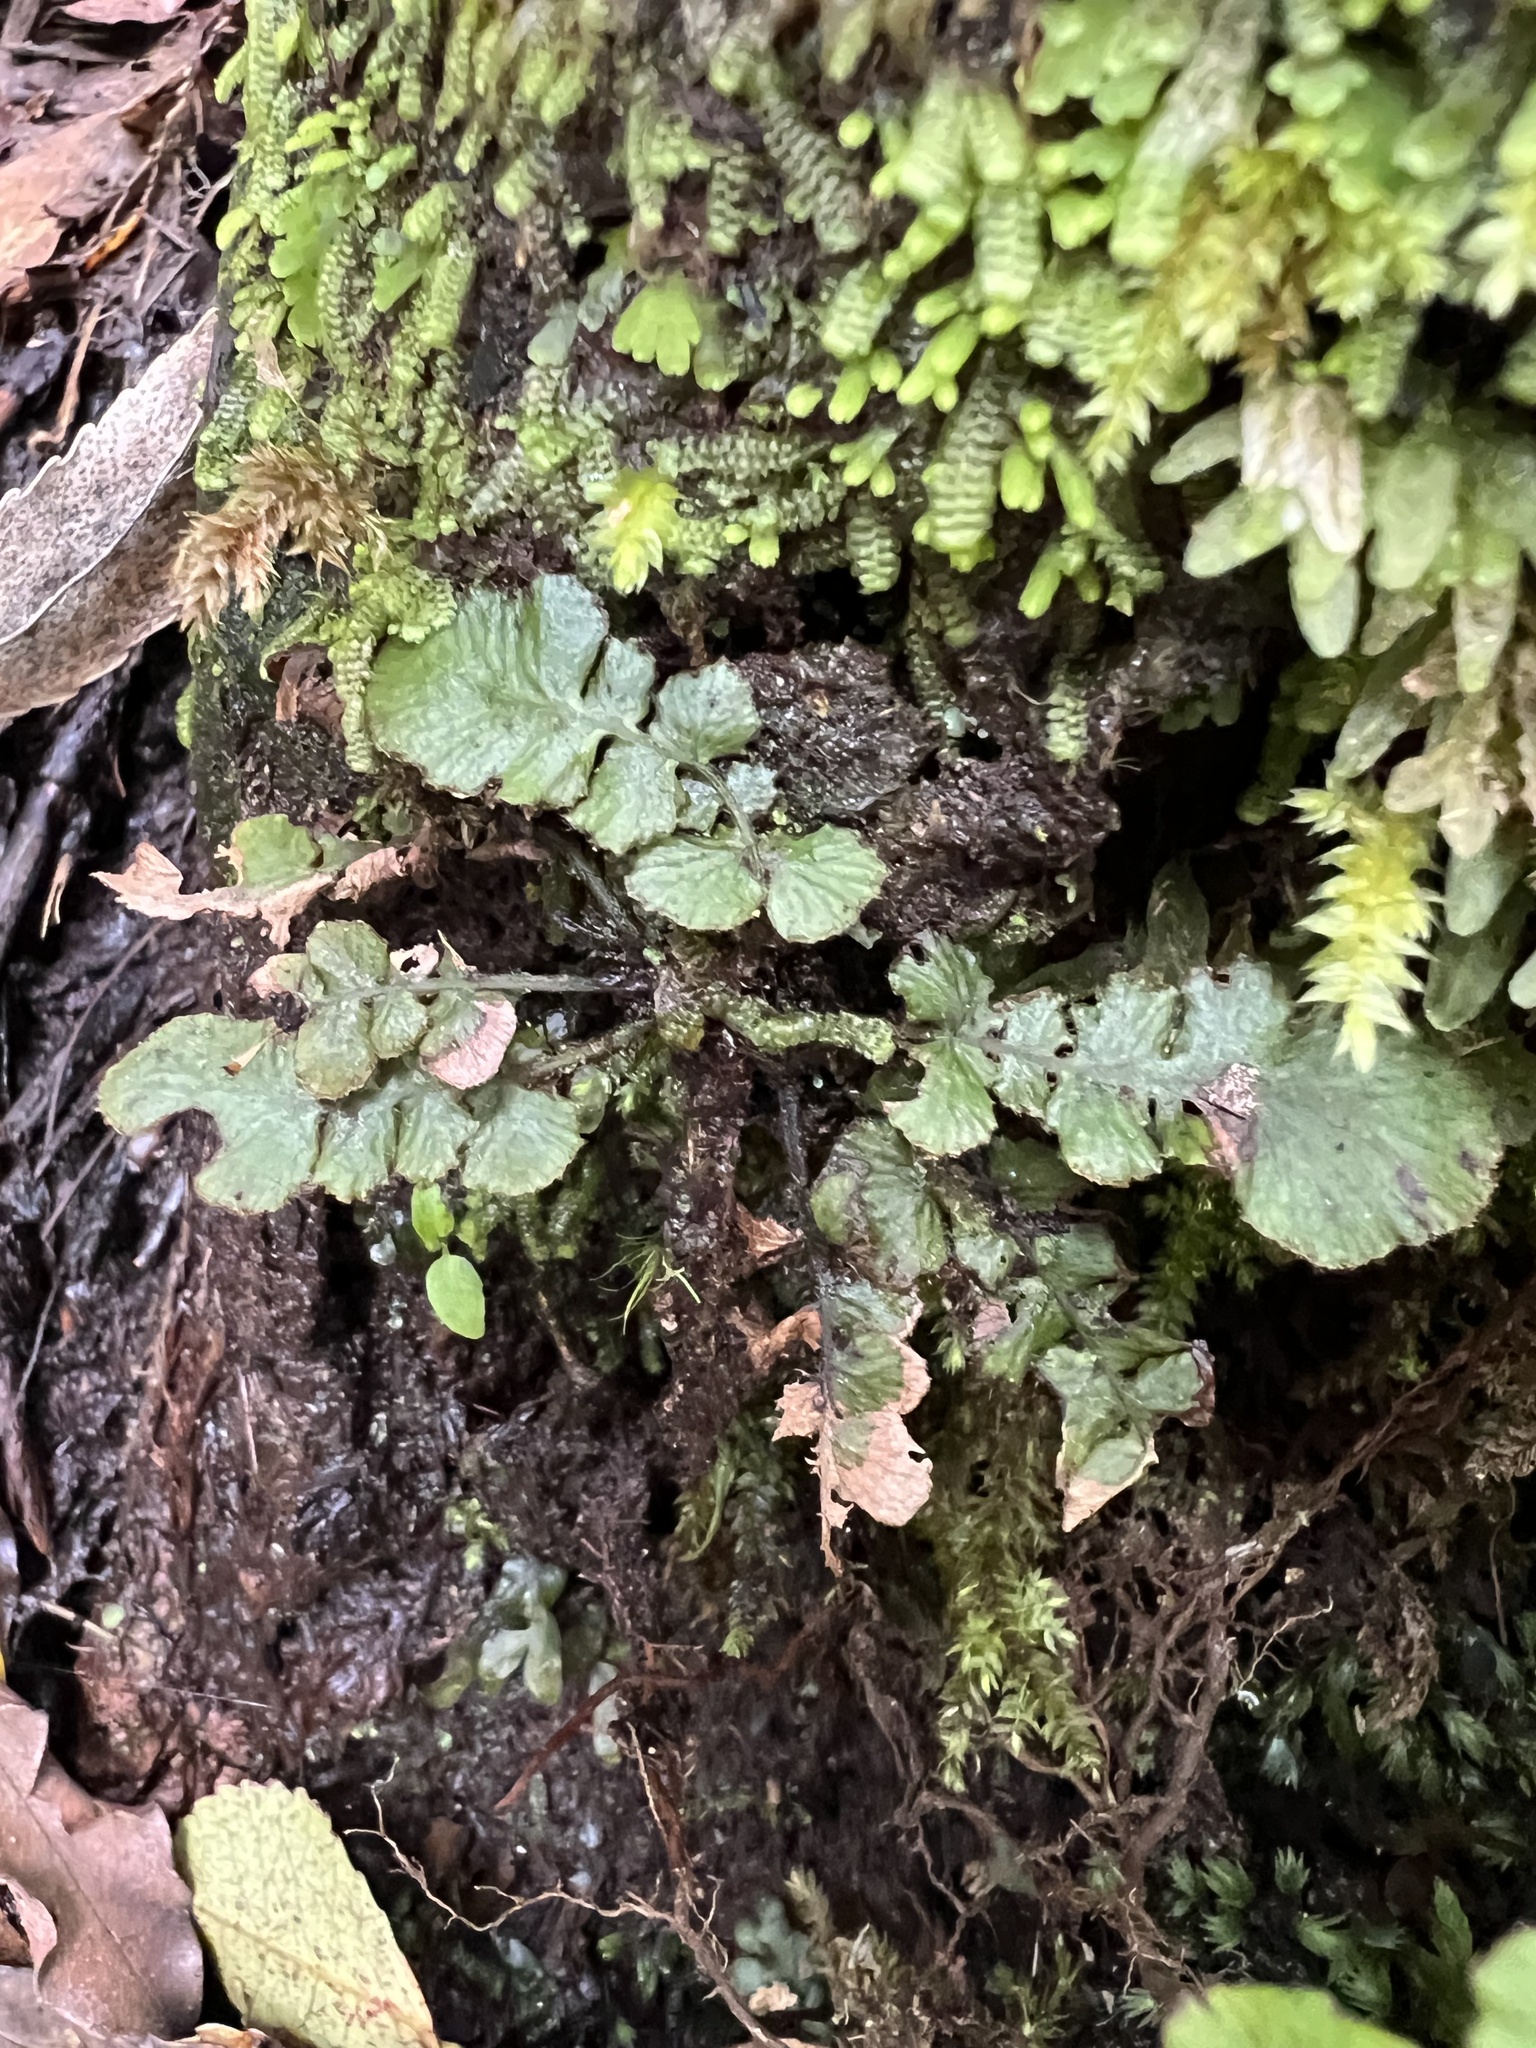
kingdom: Plantae
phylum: Tracheophyta
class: Polypodiopsida
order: Polypodiales
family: Blechnaceae
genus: Cranfillia
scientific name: Cranfillia nigra
